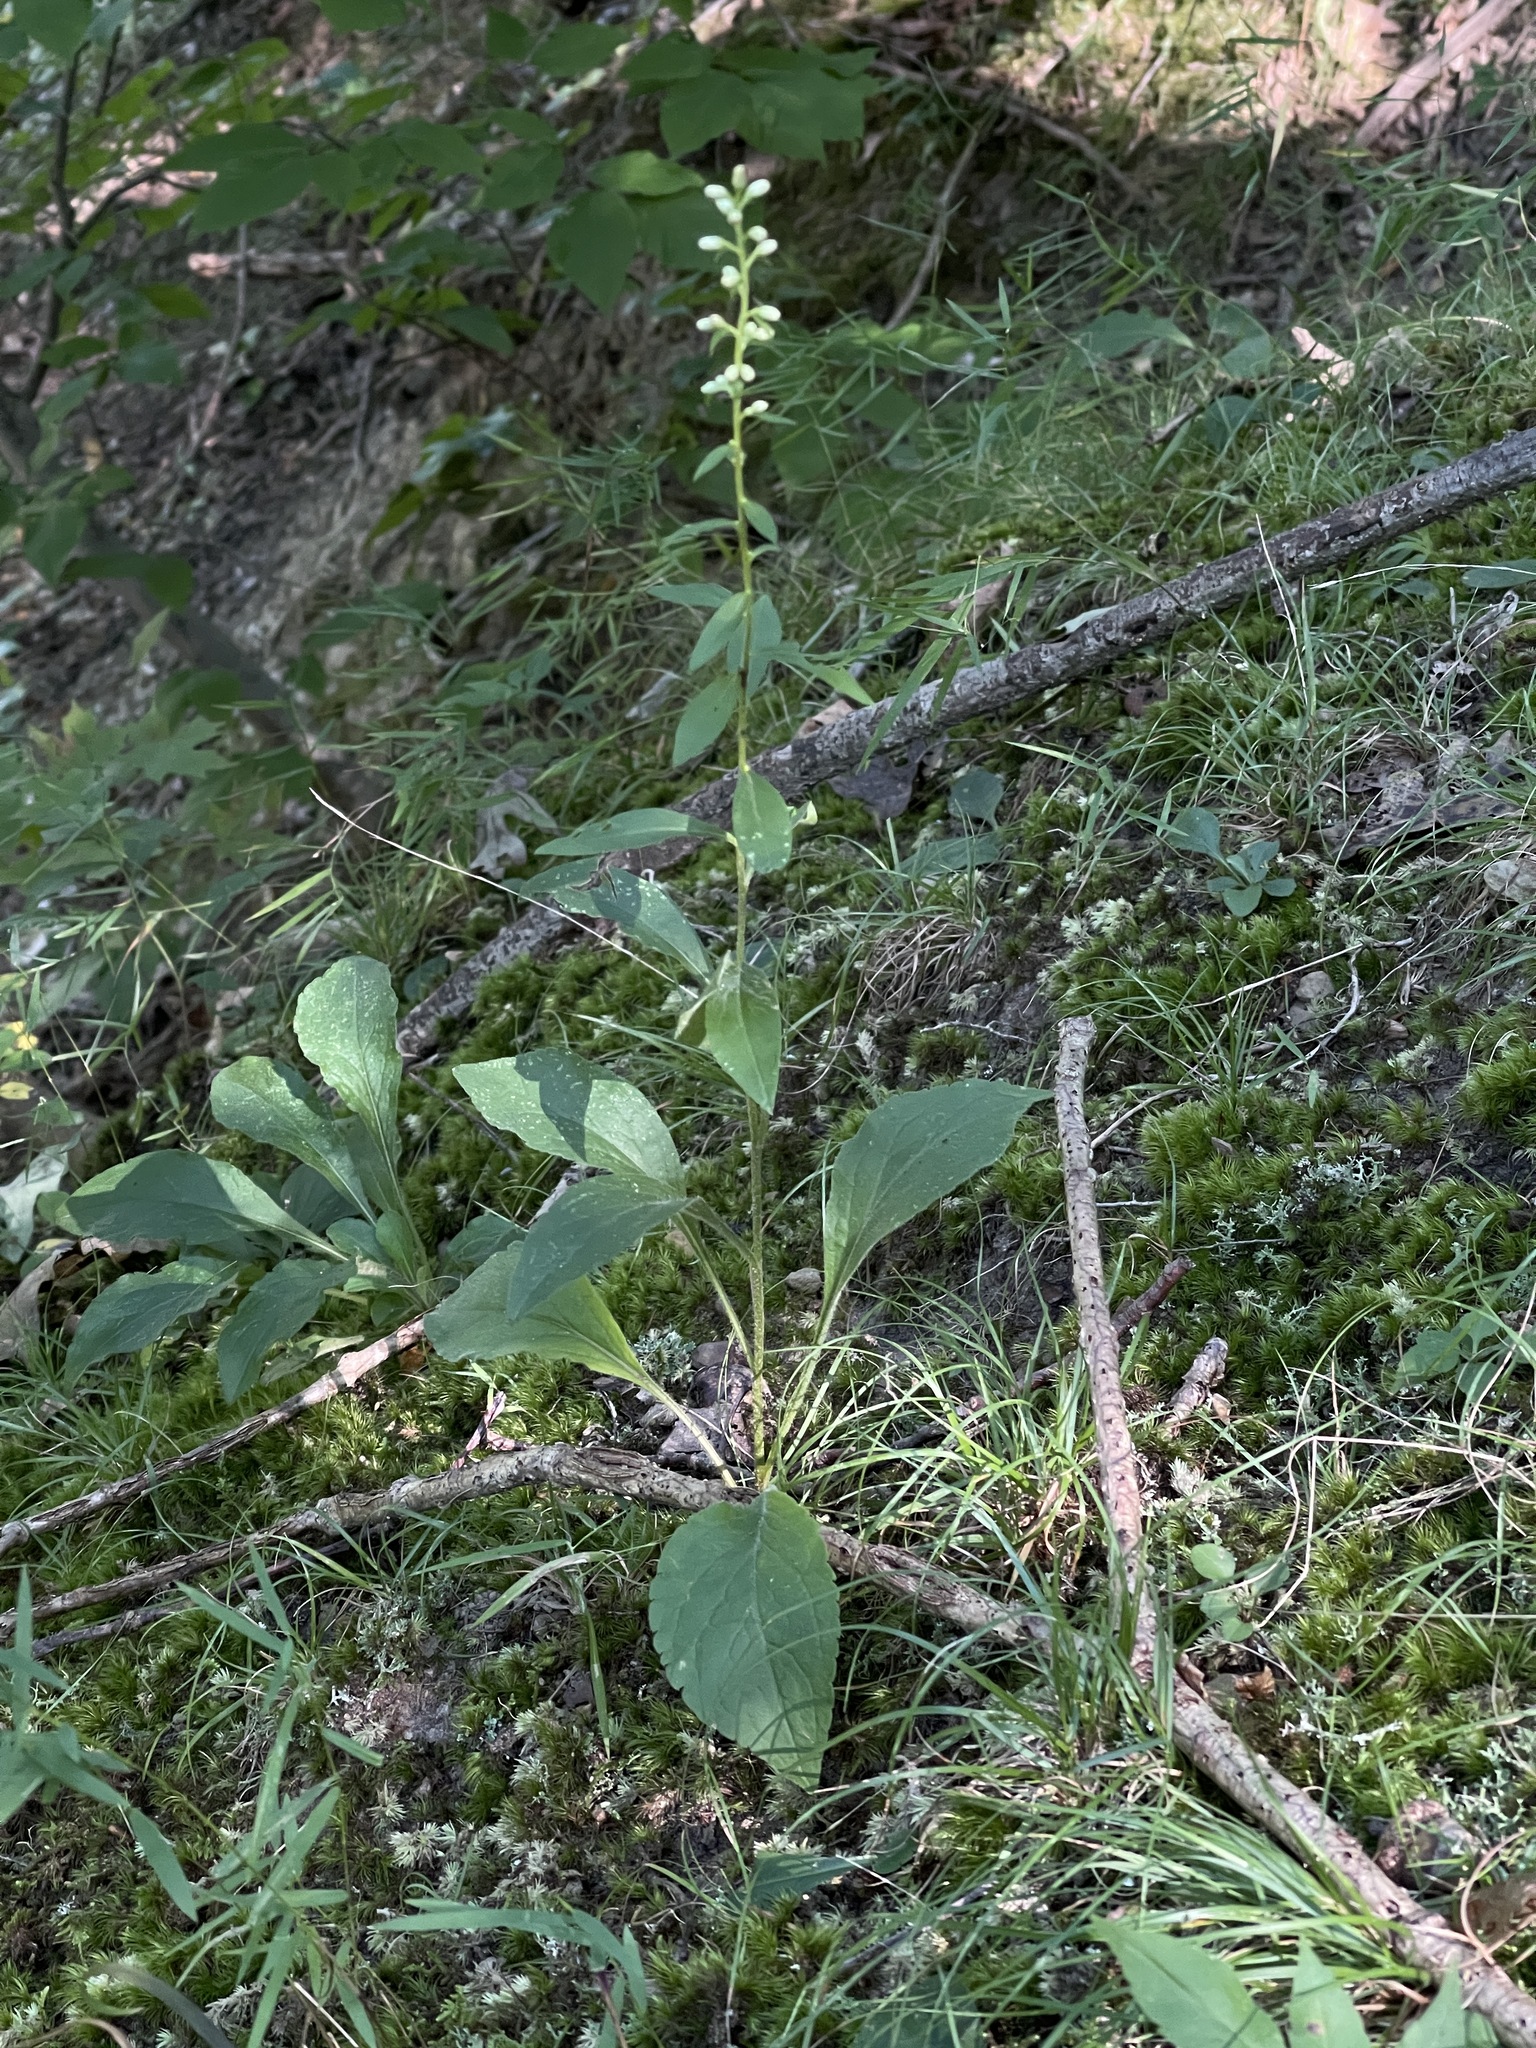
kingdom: Plantae
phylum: Tracheophyta
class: Magnoliopsida
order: Asterales
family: Asteraceae
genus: Solidago
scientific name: Solidago bicolor
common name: Silverrod
